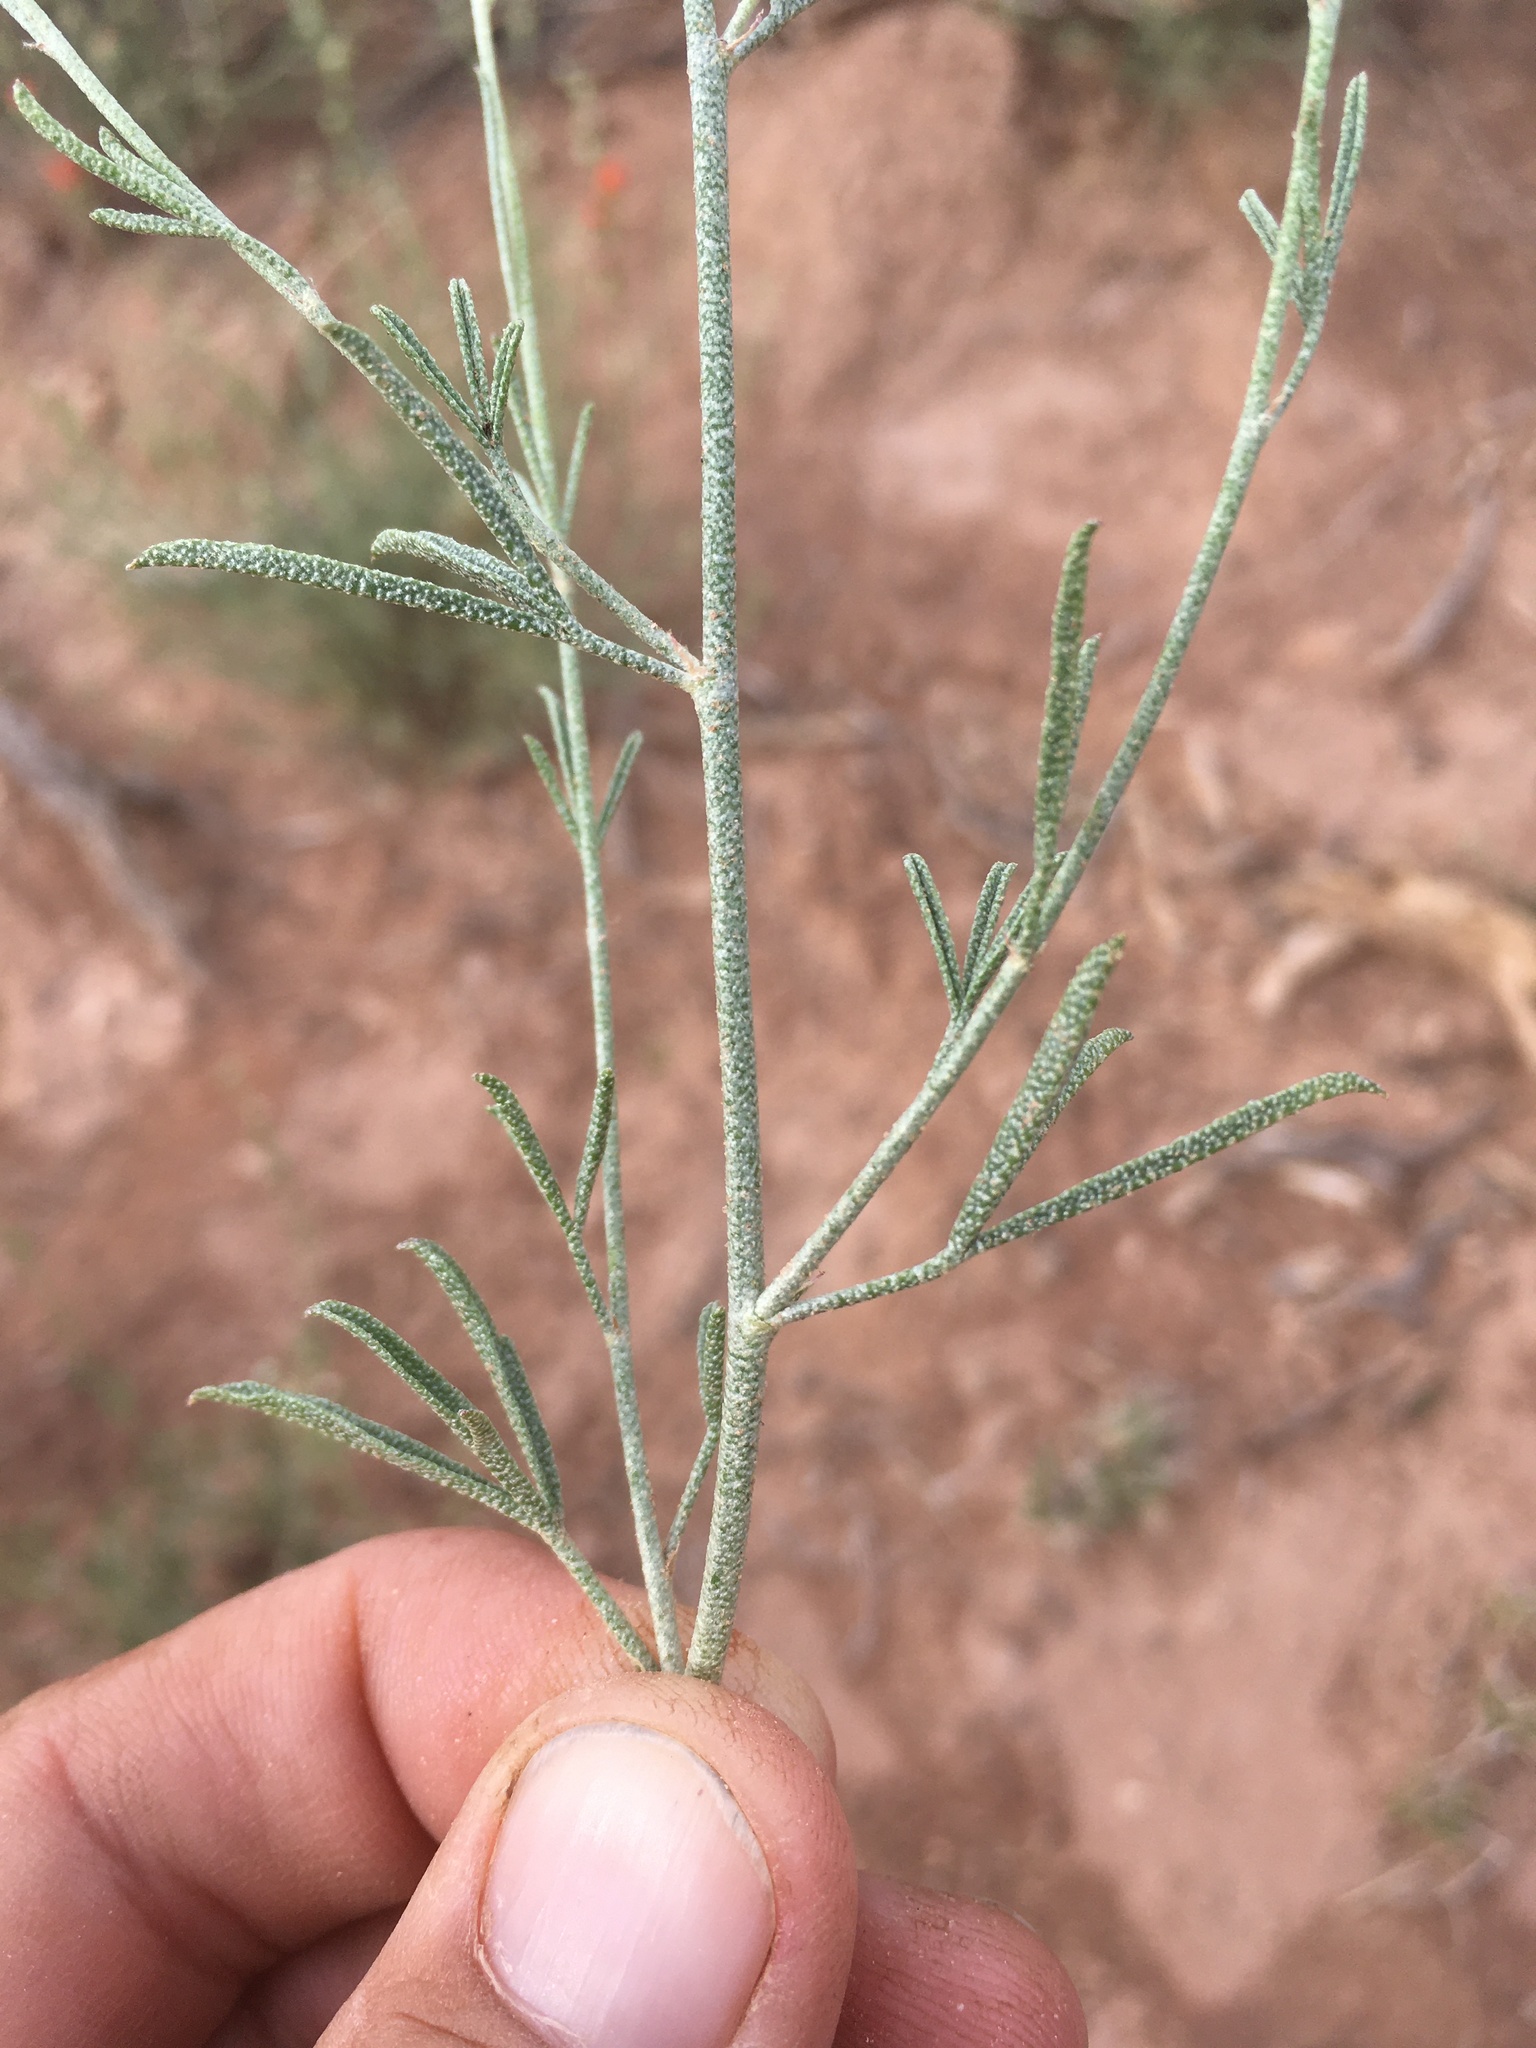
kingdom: Plantae
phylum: Tracheophyta
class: Magnoliopsida
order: Malvales
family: Malvaceae
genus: Sphaeralcea
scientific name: Sphaeralcea leptophylla
